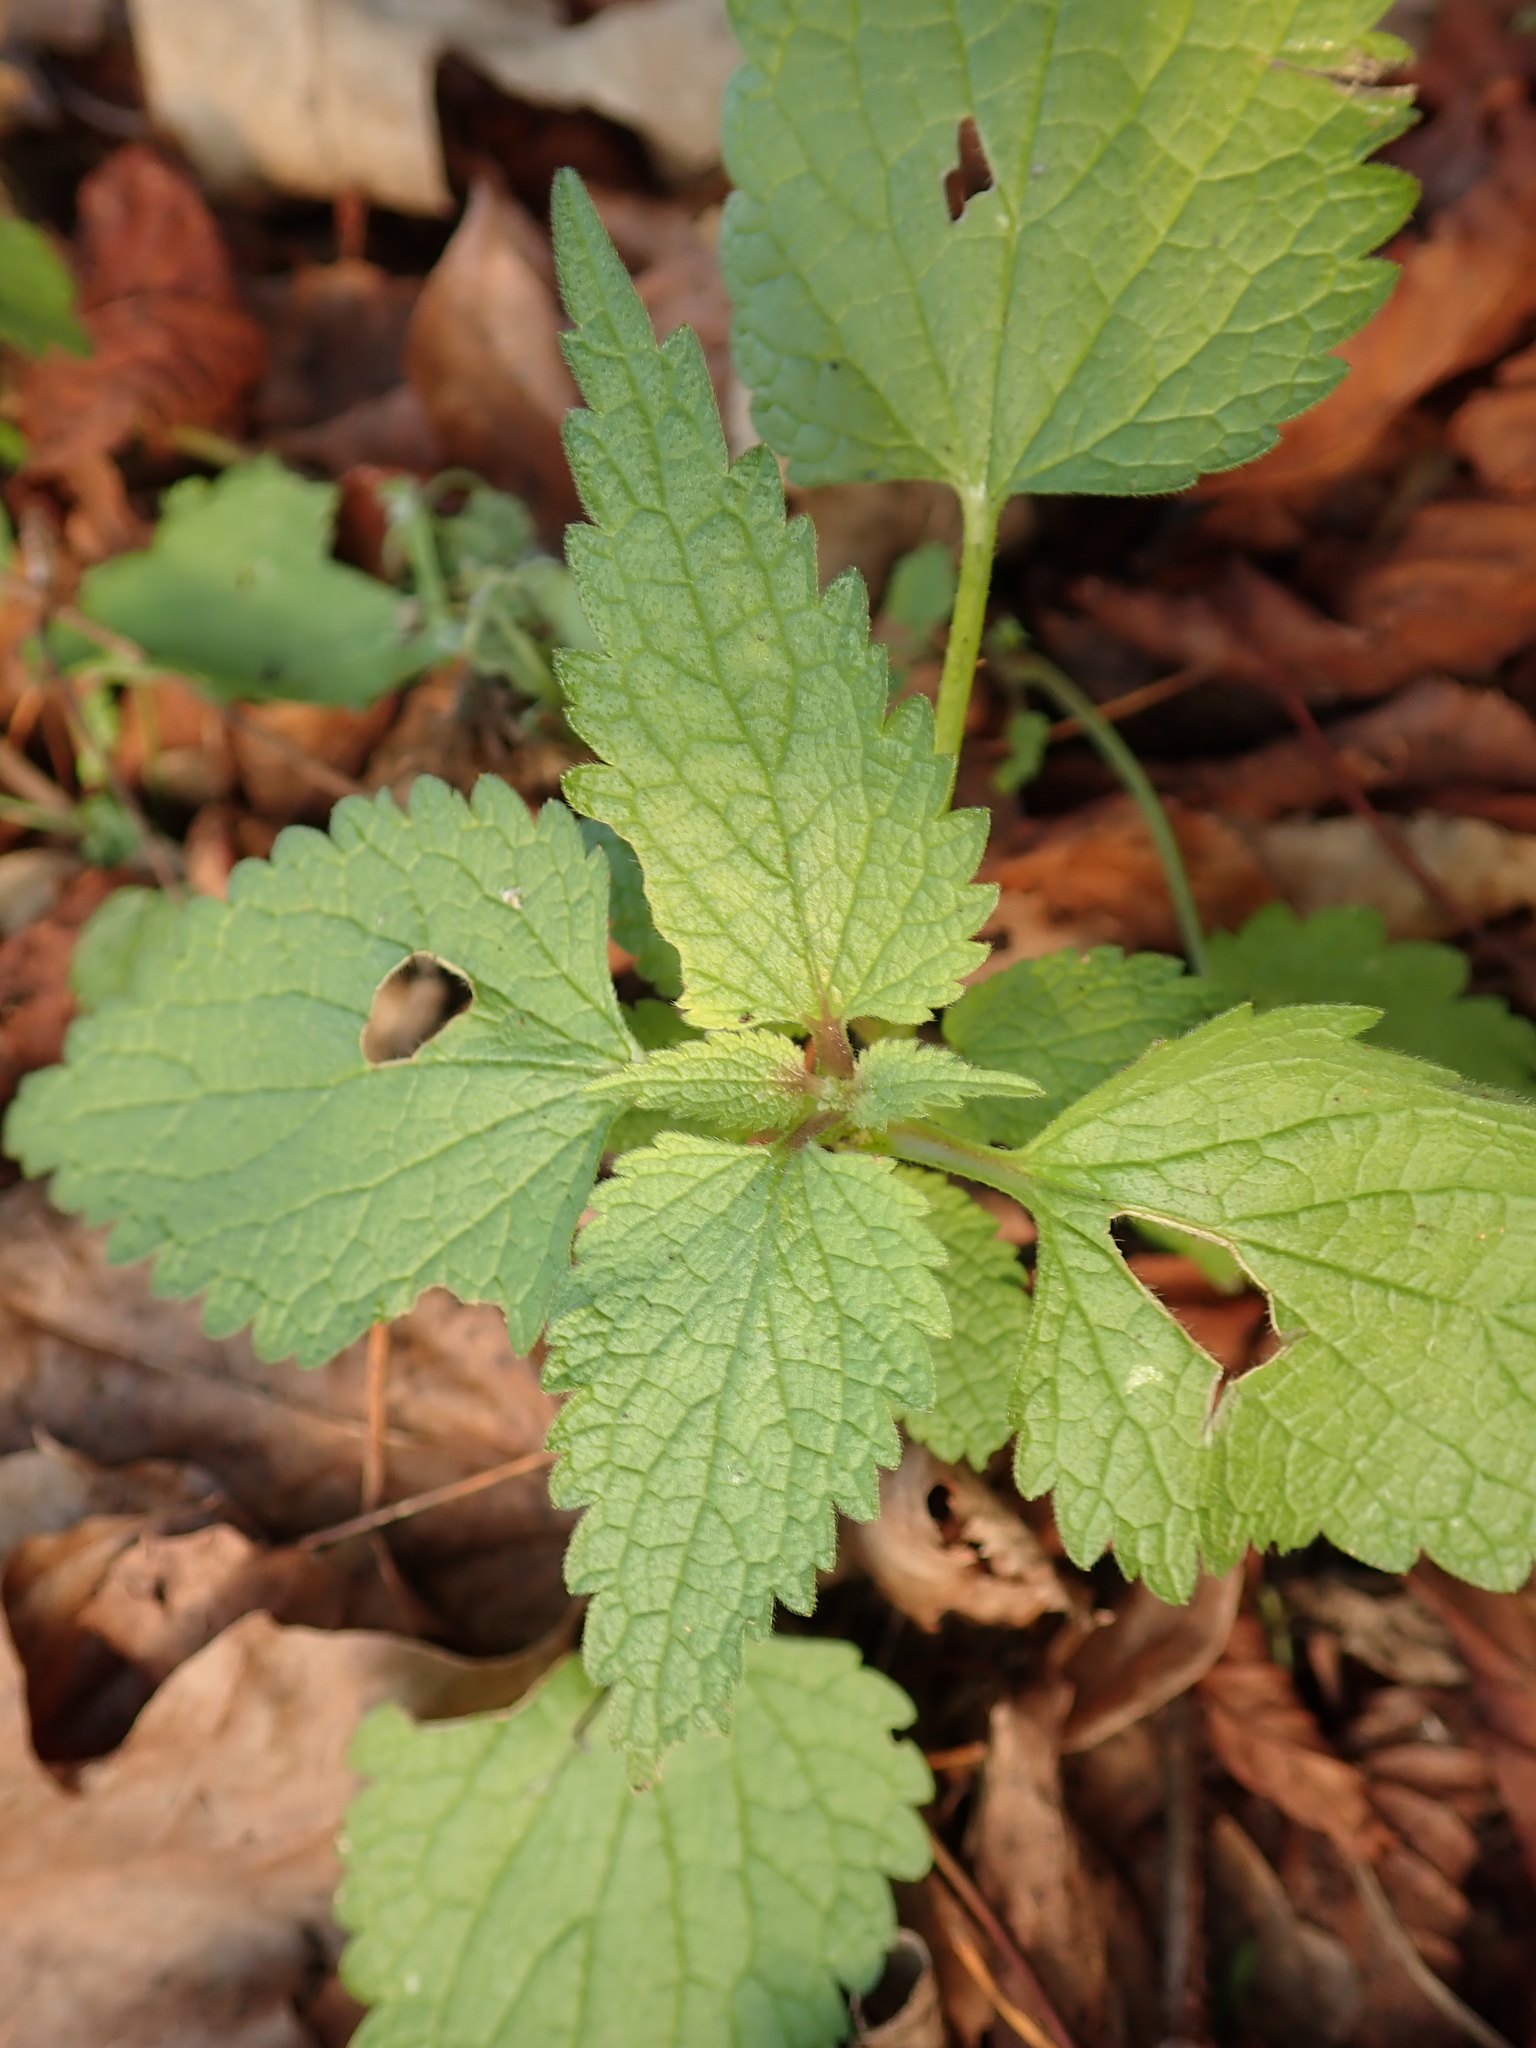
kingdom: Plantae
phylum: Tracheophyta
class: Magnoliopsida
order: Rosales
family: Urticaceae
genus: Urtica
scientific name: Urtica dioica
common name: Common nettle
